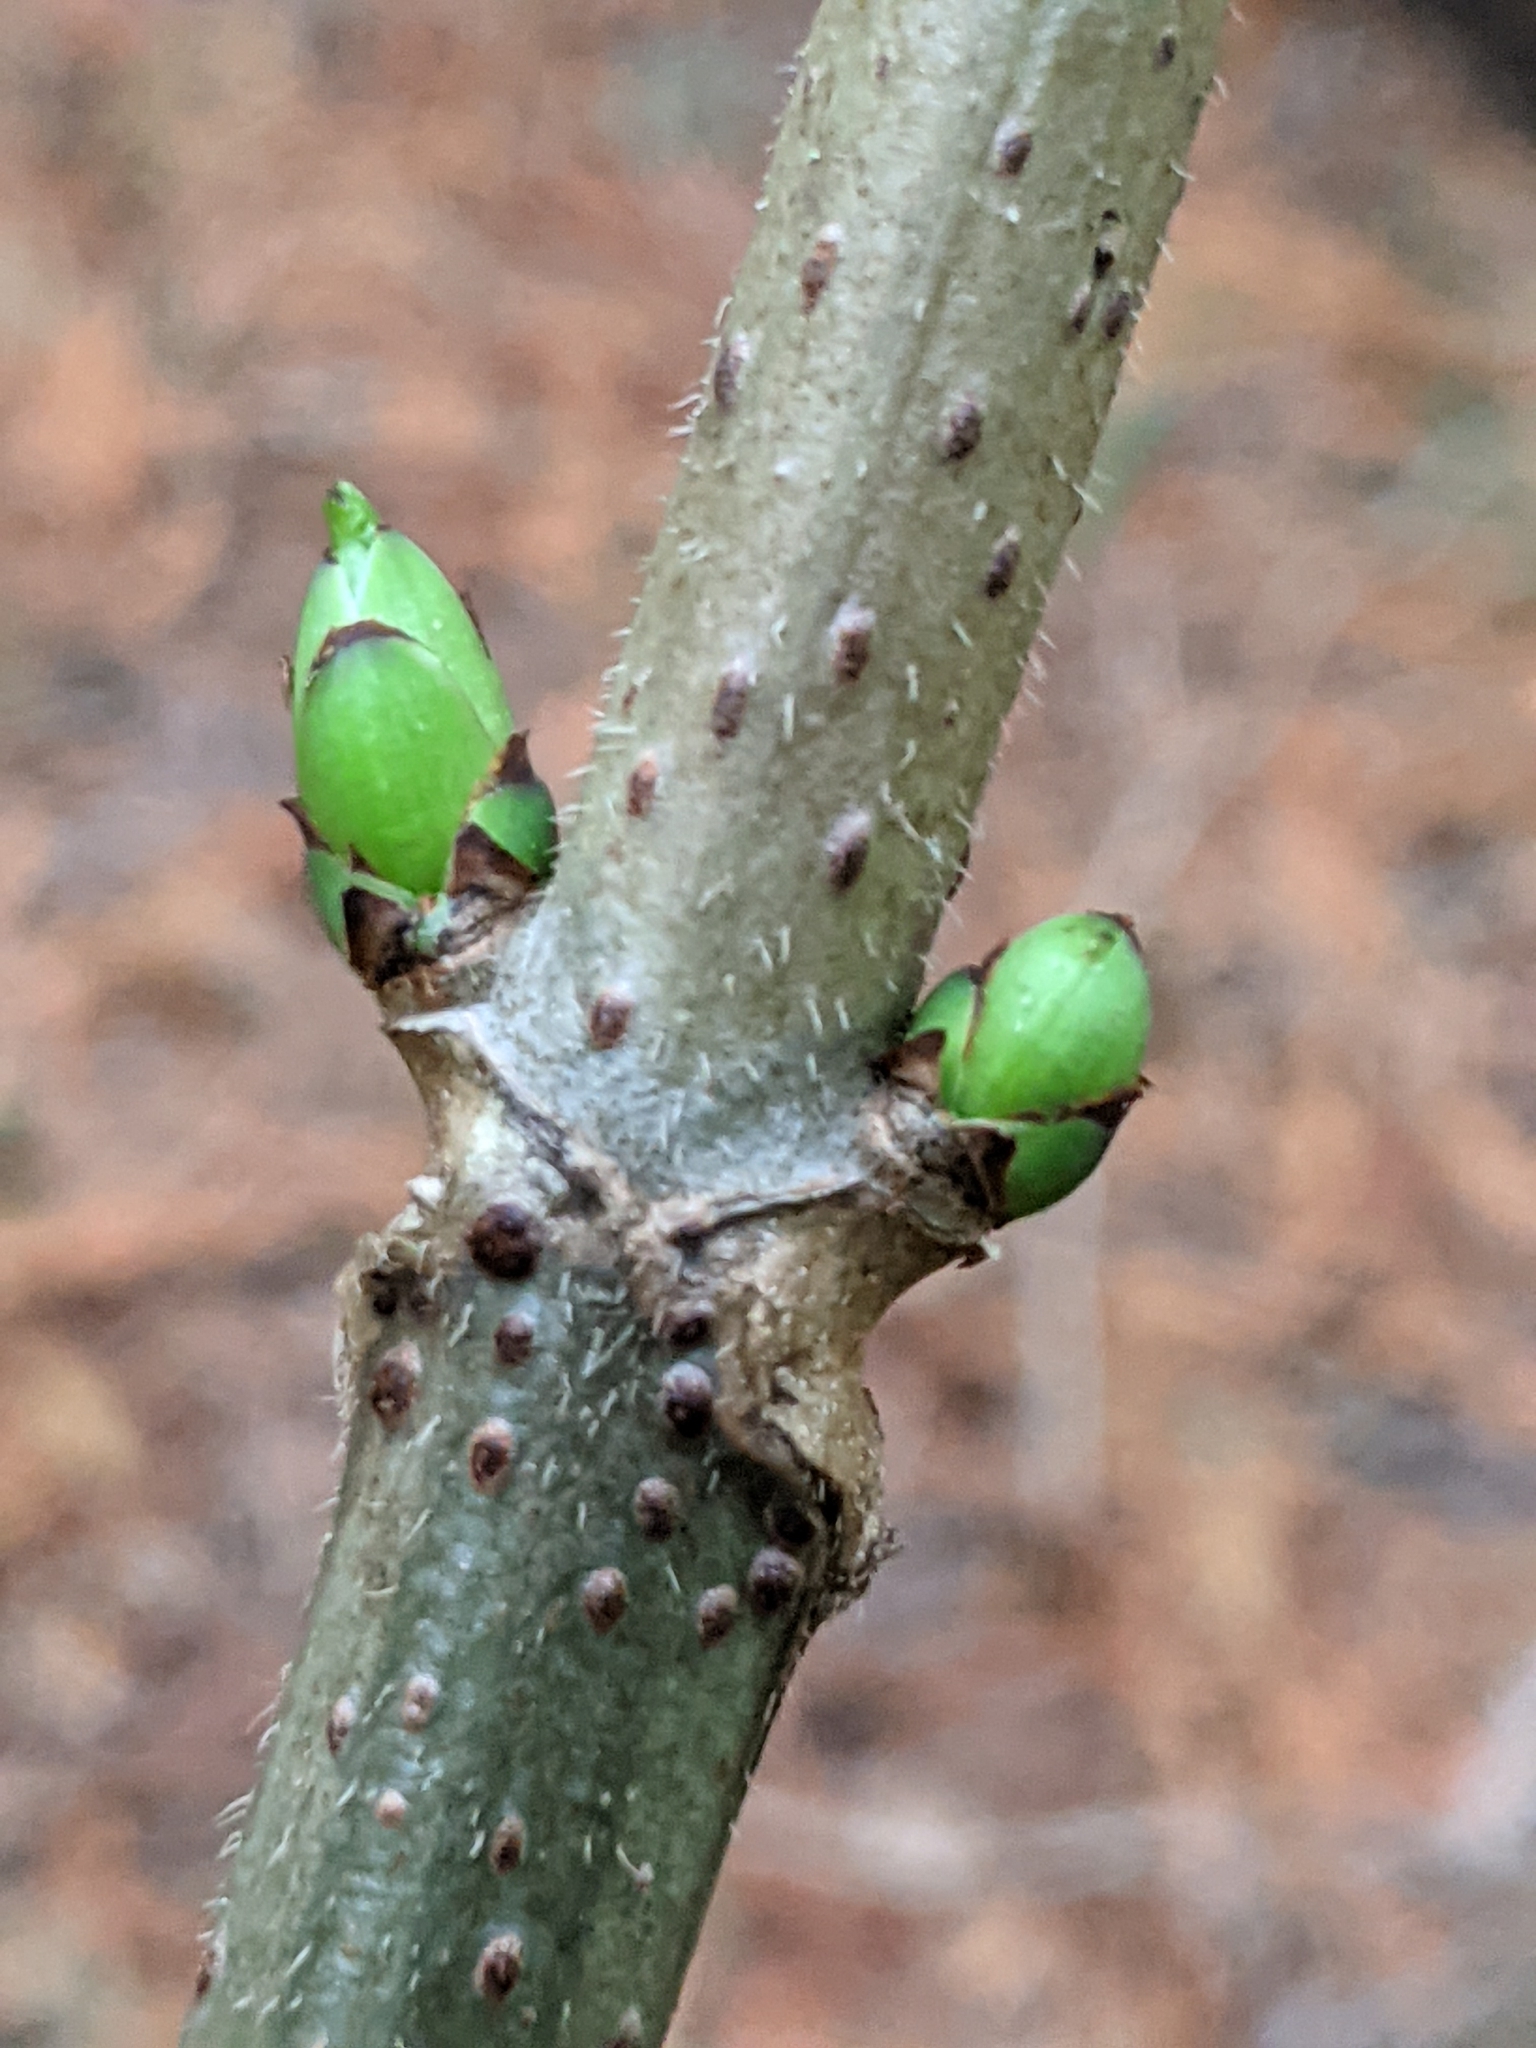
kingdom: Plantae
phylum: Tracheophyta
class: Magnoliopsida
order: Dipsacales
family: Viburnaceae
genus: Sambucus
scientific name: Sambucus racemosa
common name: Red-berried elder
